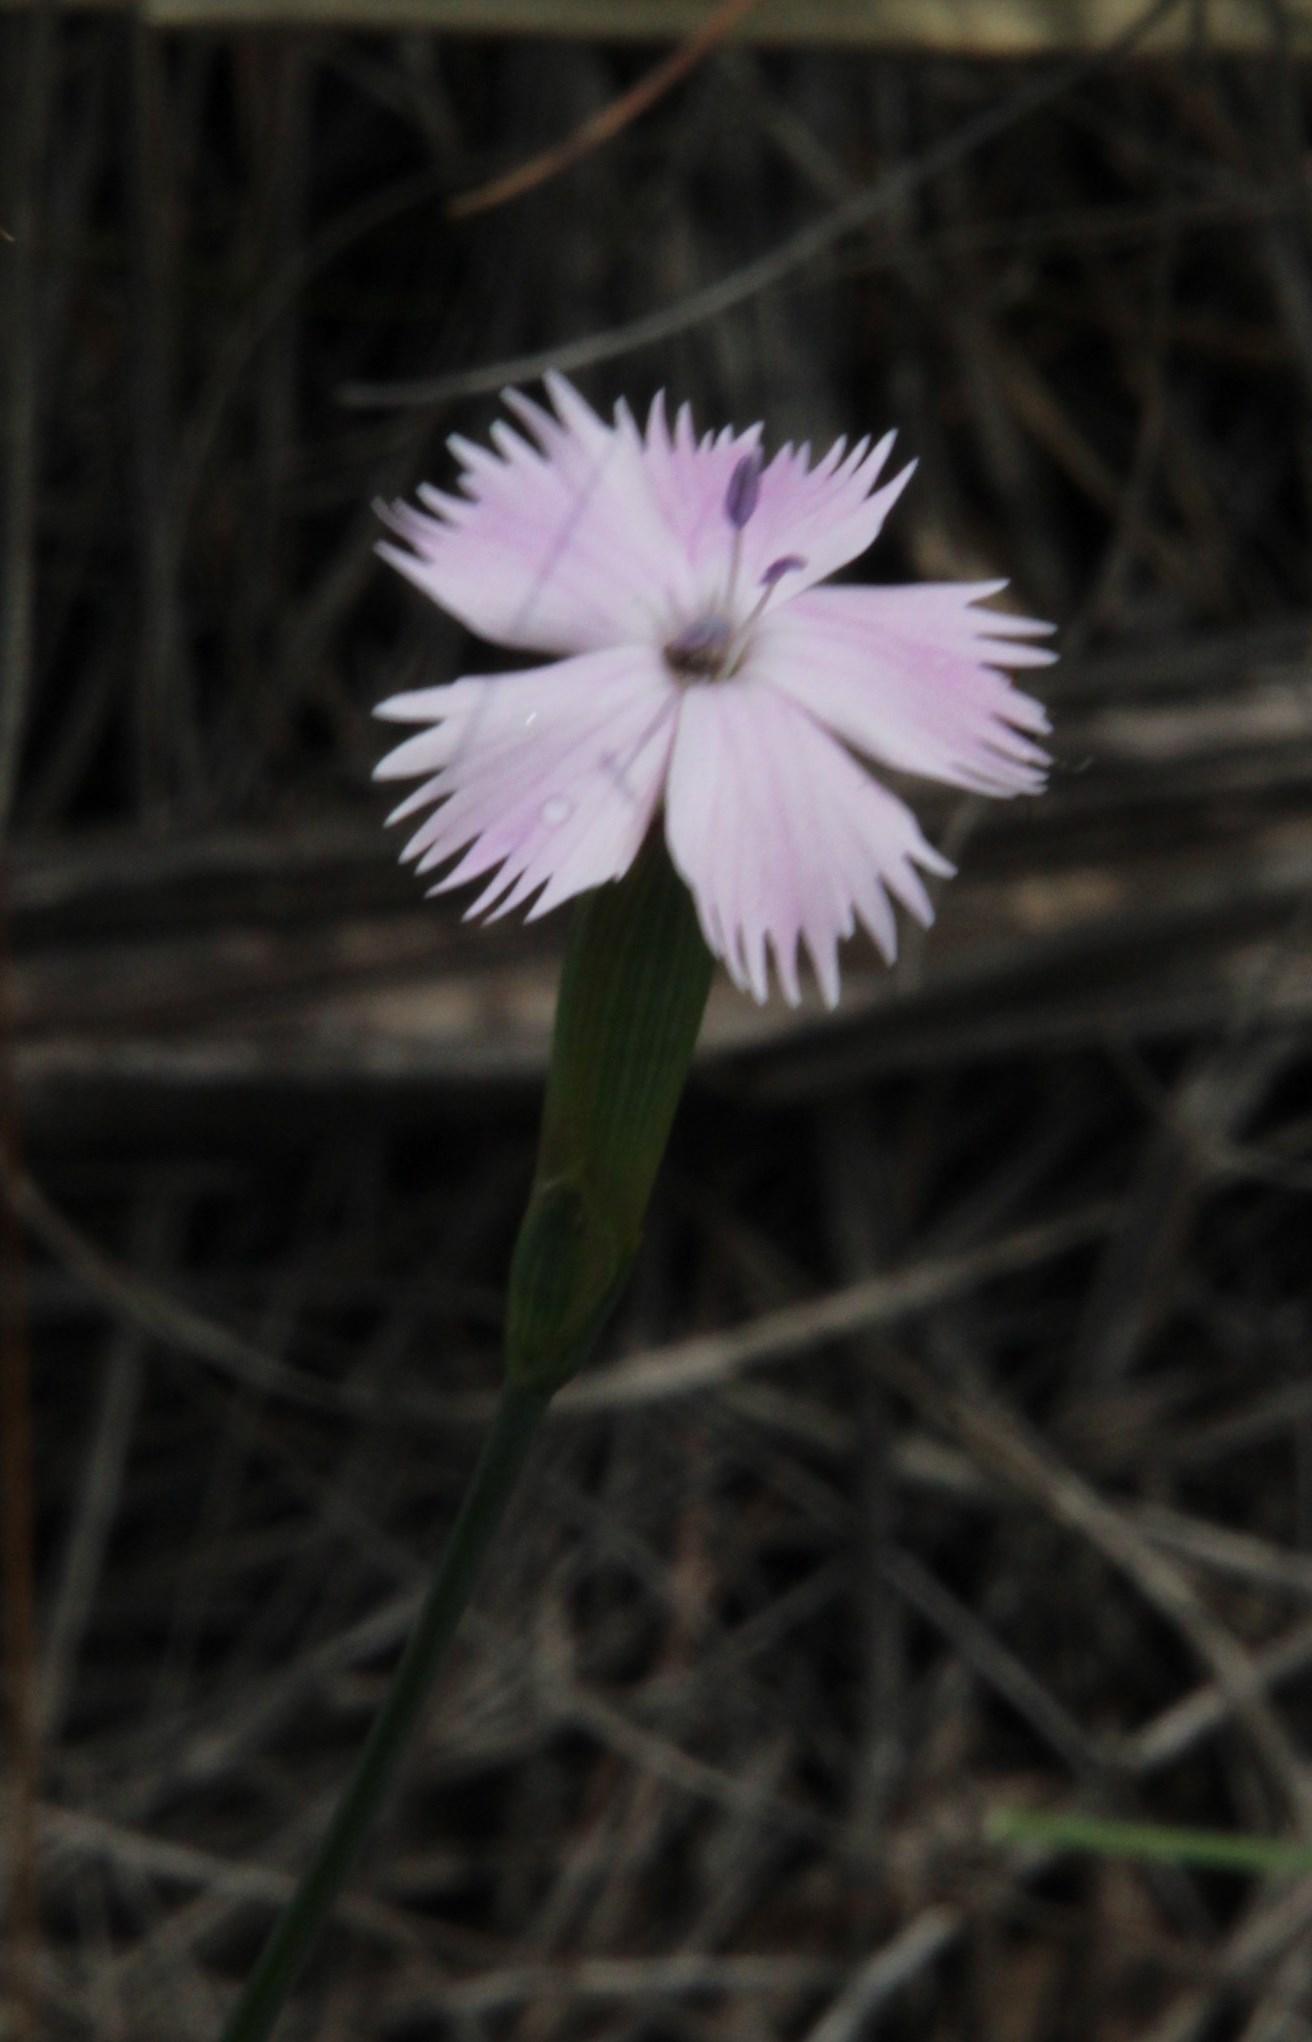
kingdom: Plantae
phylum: Tracheophyta
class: Magnoliopsida
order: Caryophyllales
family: Caryophyllaceae
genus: Dianthus
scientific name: Dianthus micropetalus
